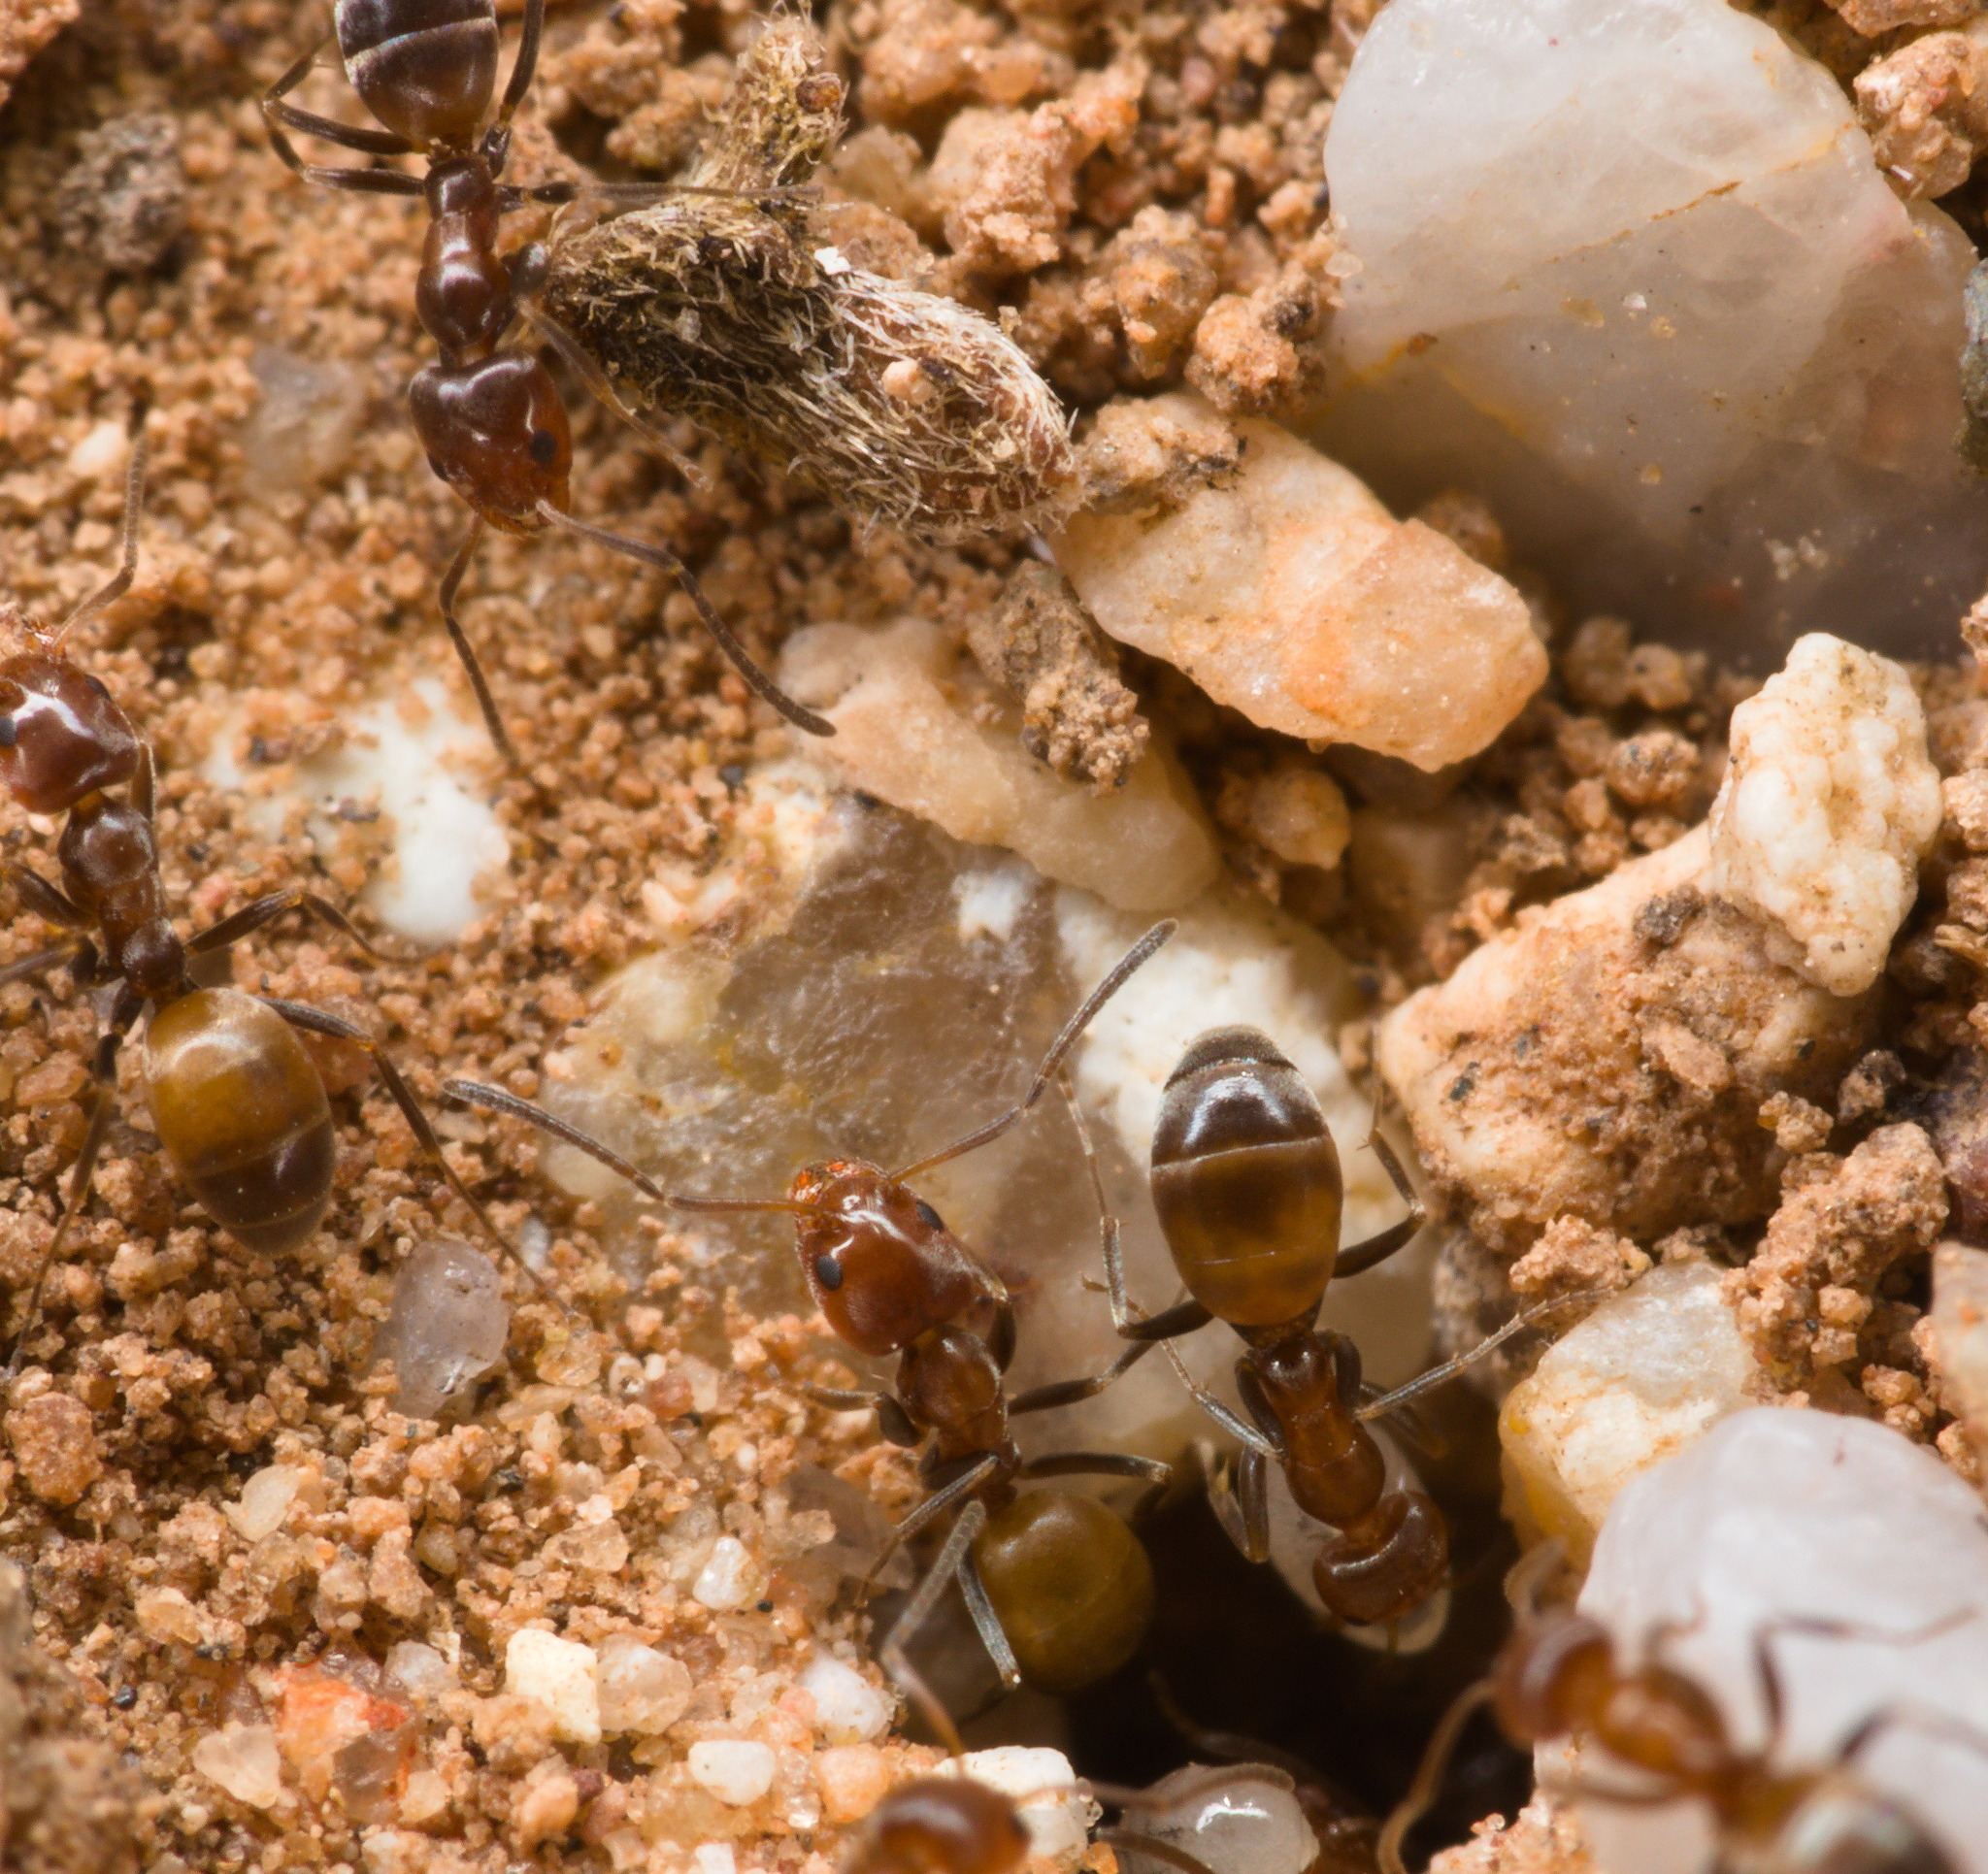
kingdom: Animalia
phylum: Arthropoda
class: Insecta
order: Hymenoptera
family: Formicidae
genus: Forelius
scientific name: Forelius pruinosus
